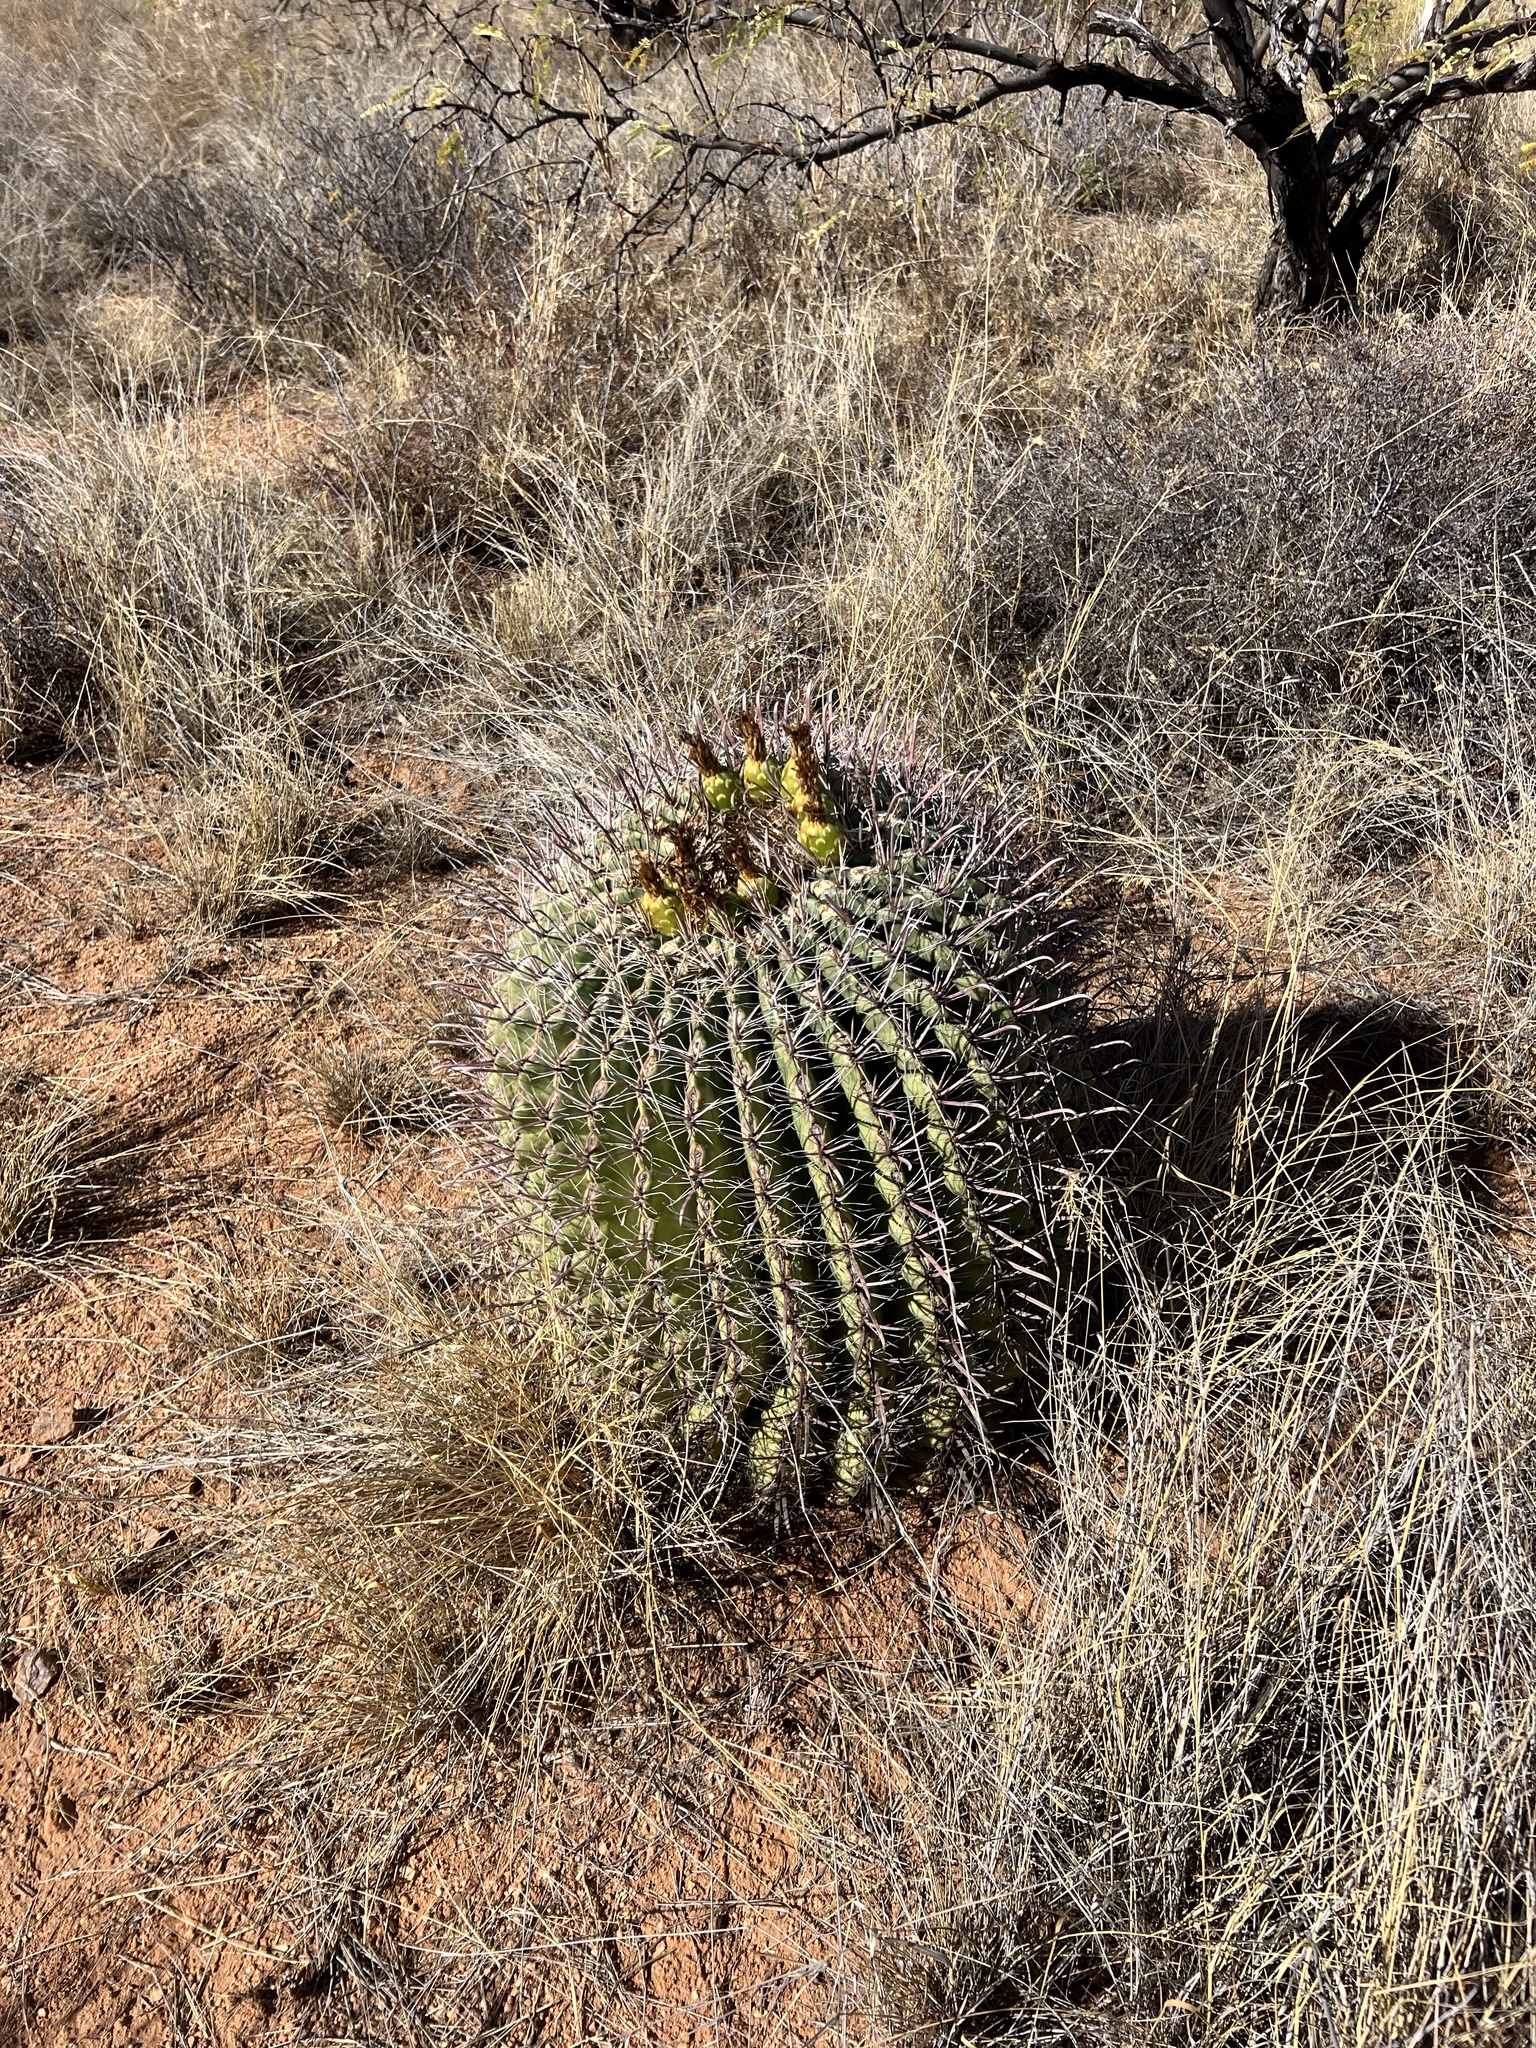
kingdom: Plantae
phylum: Tracheophyta
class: Magnoliopsida
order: Caryophyllales
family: Cactaceae
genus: Ferocactus
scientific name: Ferocactus wislizeni
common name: Candy barrel cactus
